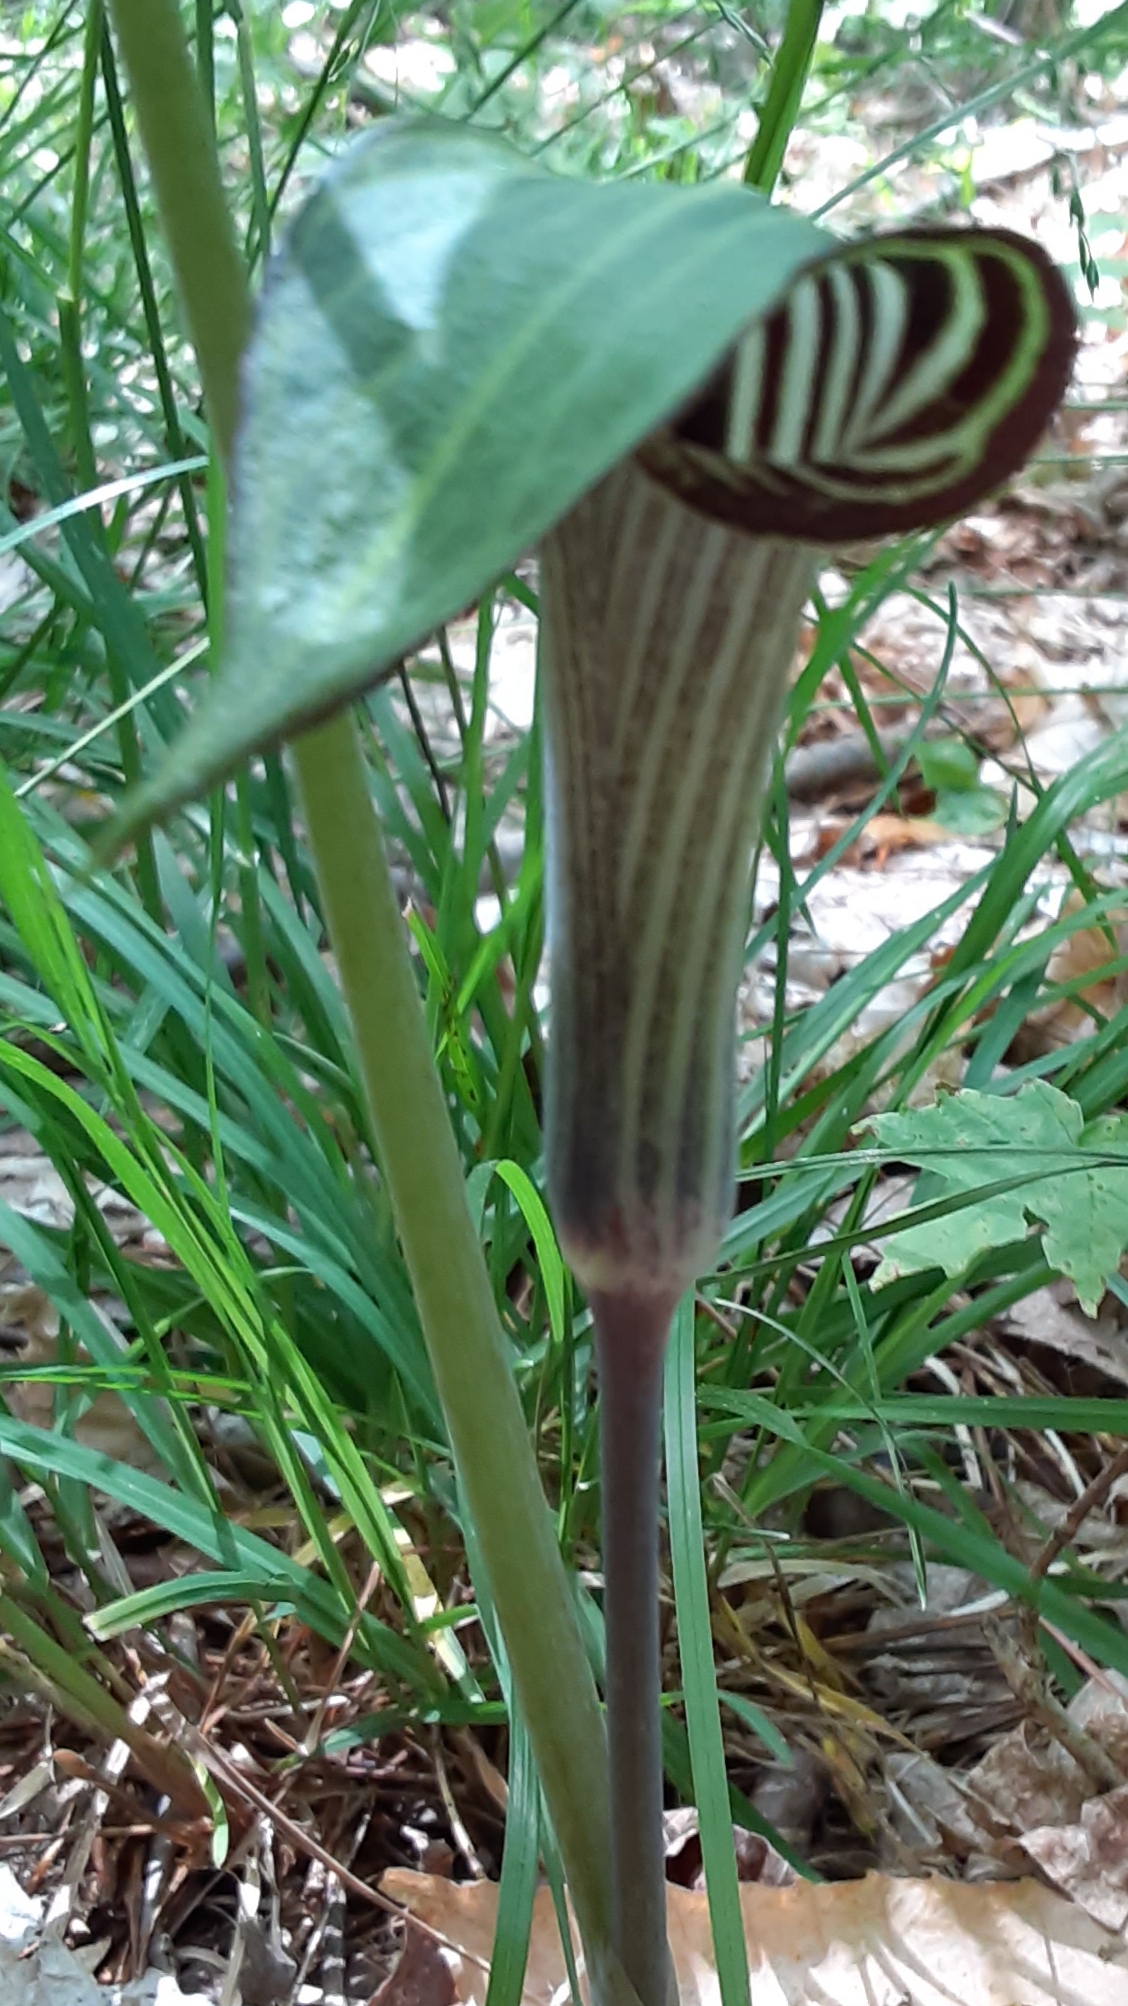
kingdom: Plantae
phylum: Tracheophyta
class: Liliopsida
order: Alismatales
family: Araceae
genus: Arisaema
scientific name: Arisaema triphyllum
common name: Jack-in-the-pulpit
